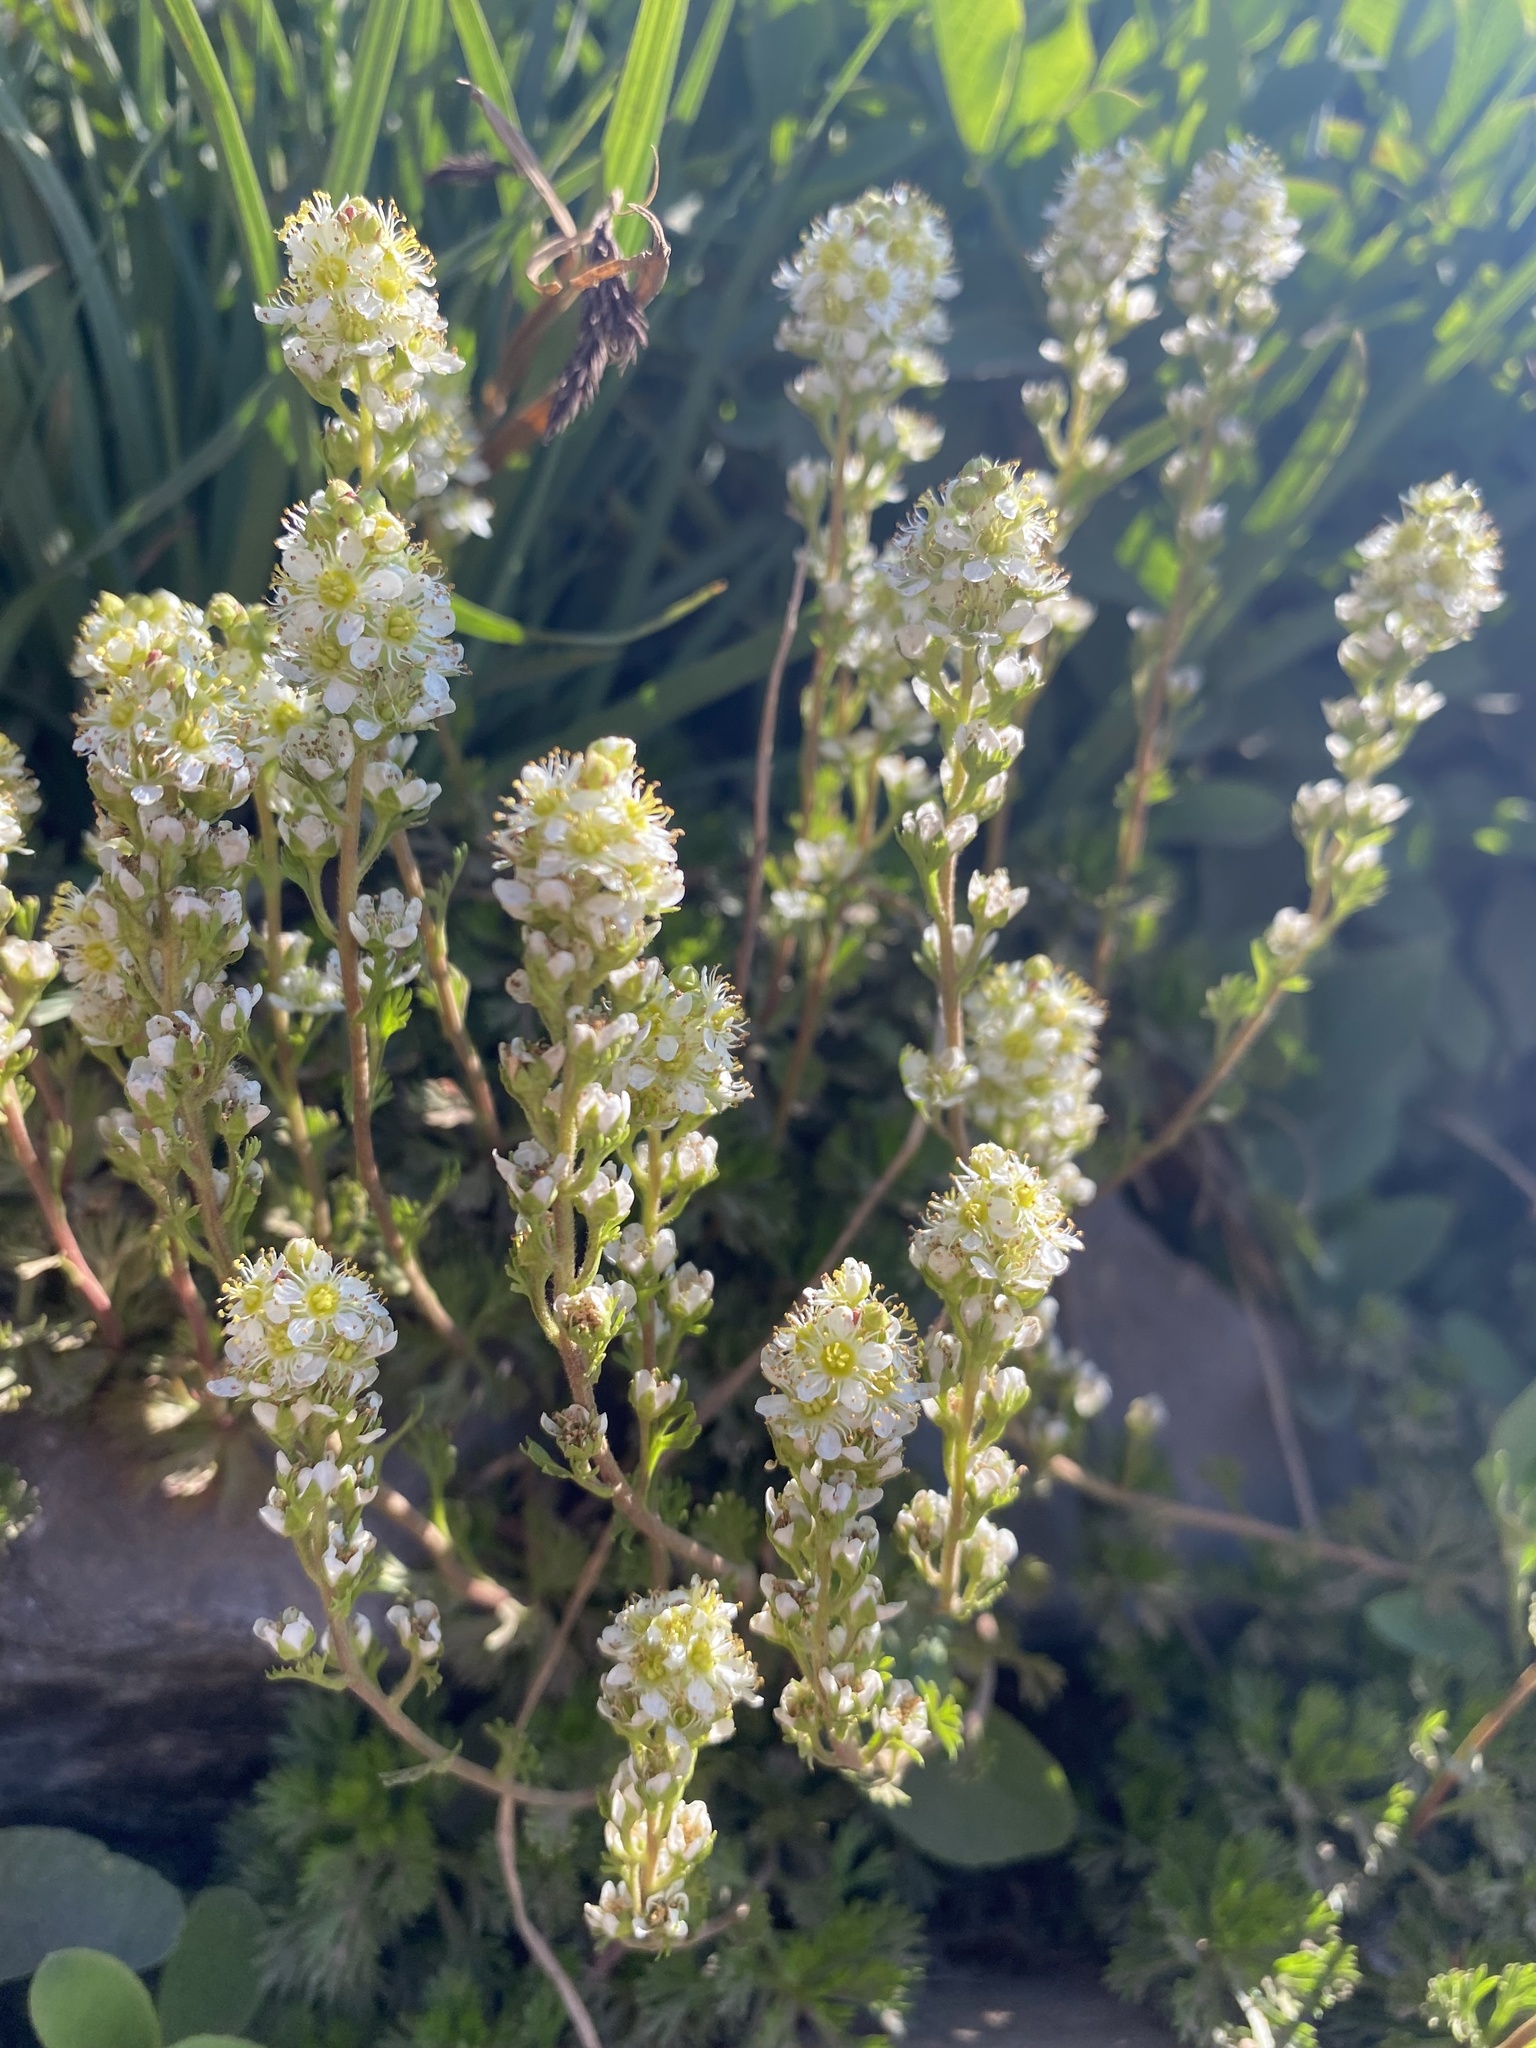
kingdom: Plantae
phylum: Tracheophyta
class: Magnoliopsida
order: Rosales
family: Rosaceae
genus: Luetkea
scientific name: Luetkea pectinata
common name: Partridgefoot
